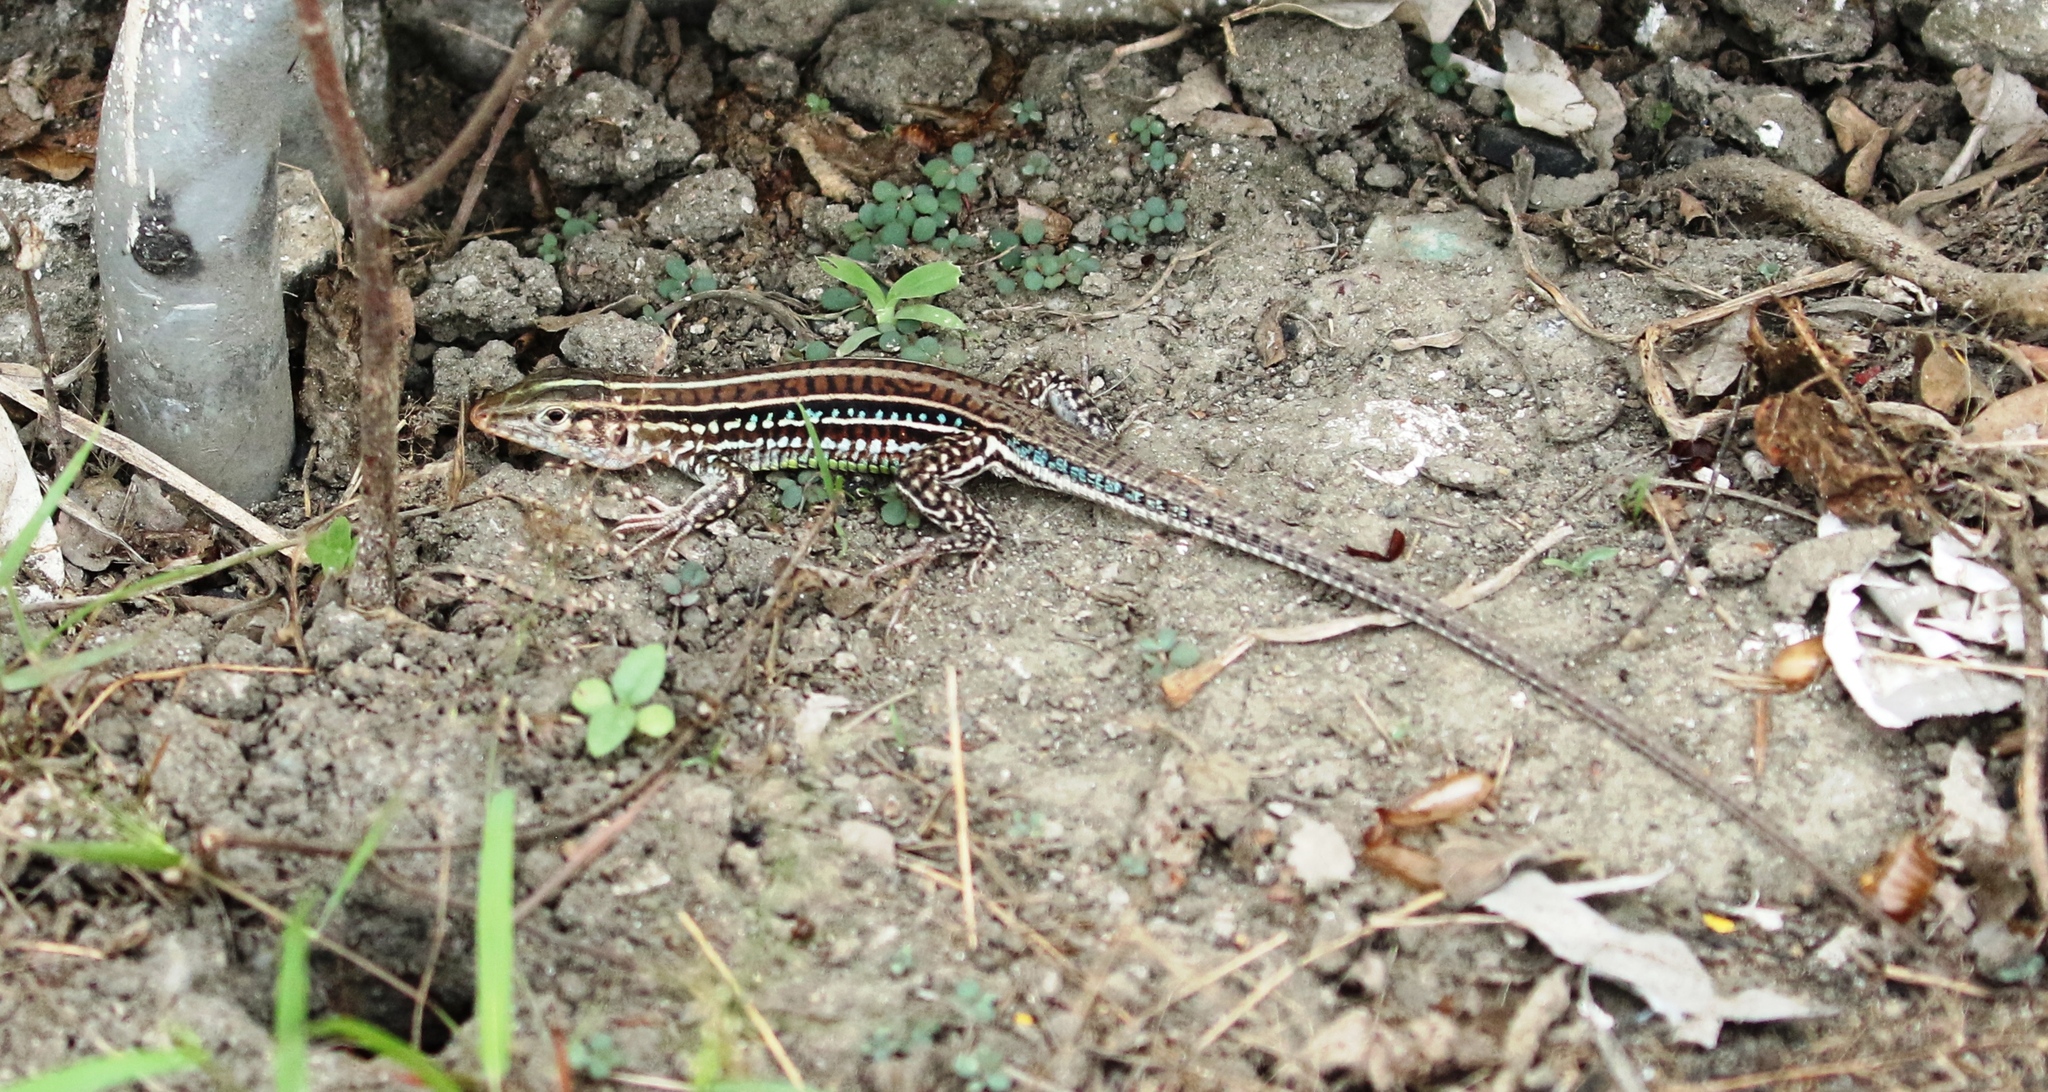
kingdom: Animalia
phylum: Chordata
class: Squamata
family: Teiidae
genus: Holcosus
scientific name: Holcosus septemlineatus
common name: Seven-lined ameiva
